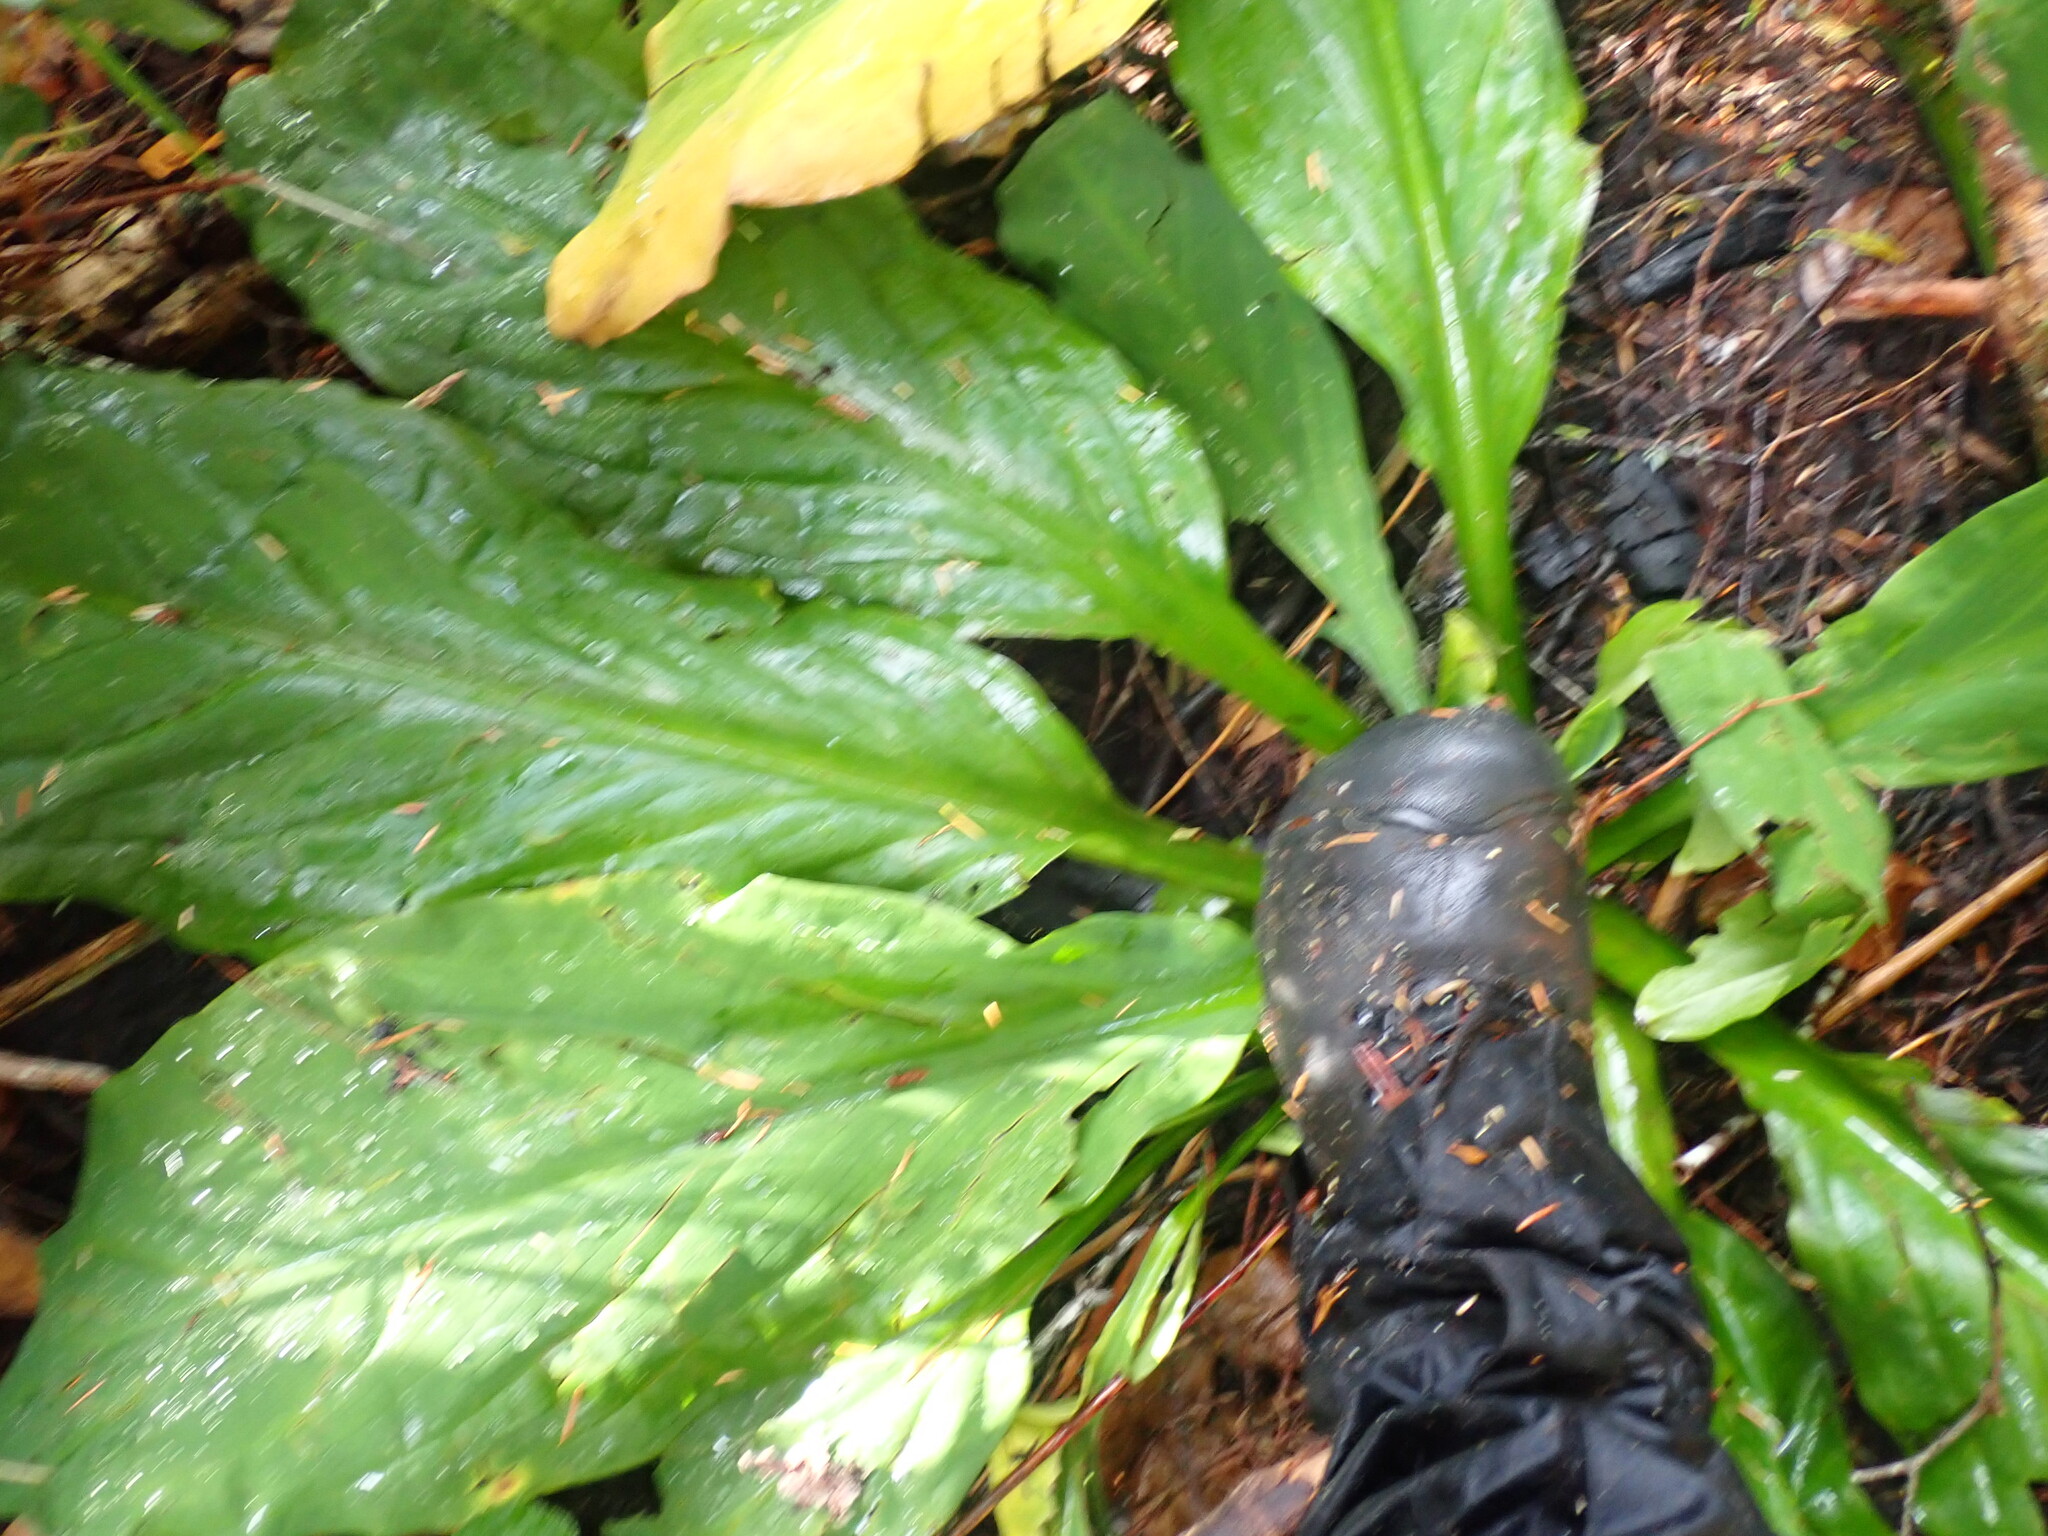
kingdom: Plantae
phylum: Tracheophyta
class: Liliopsida
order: Alismatales
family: Araceae
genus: Lysichiton
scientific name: Lysichiton americanus
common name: American skunk cabbage
